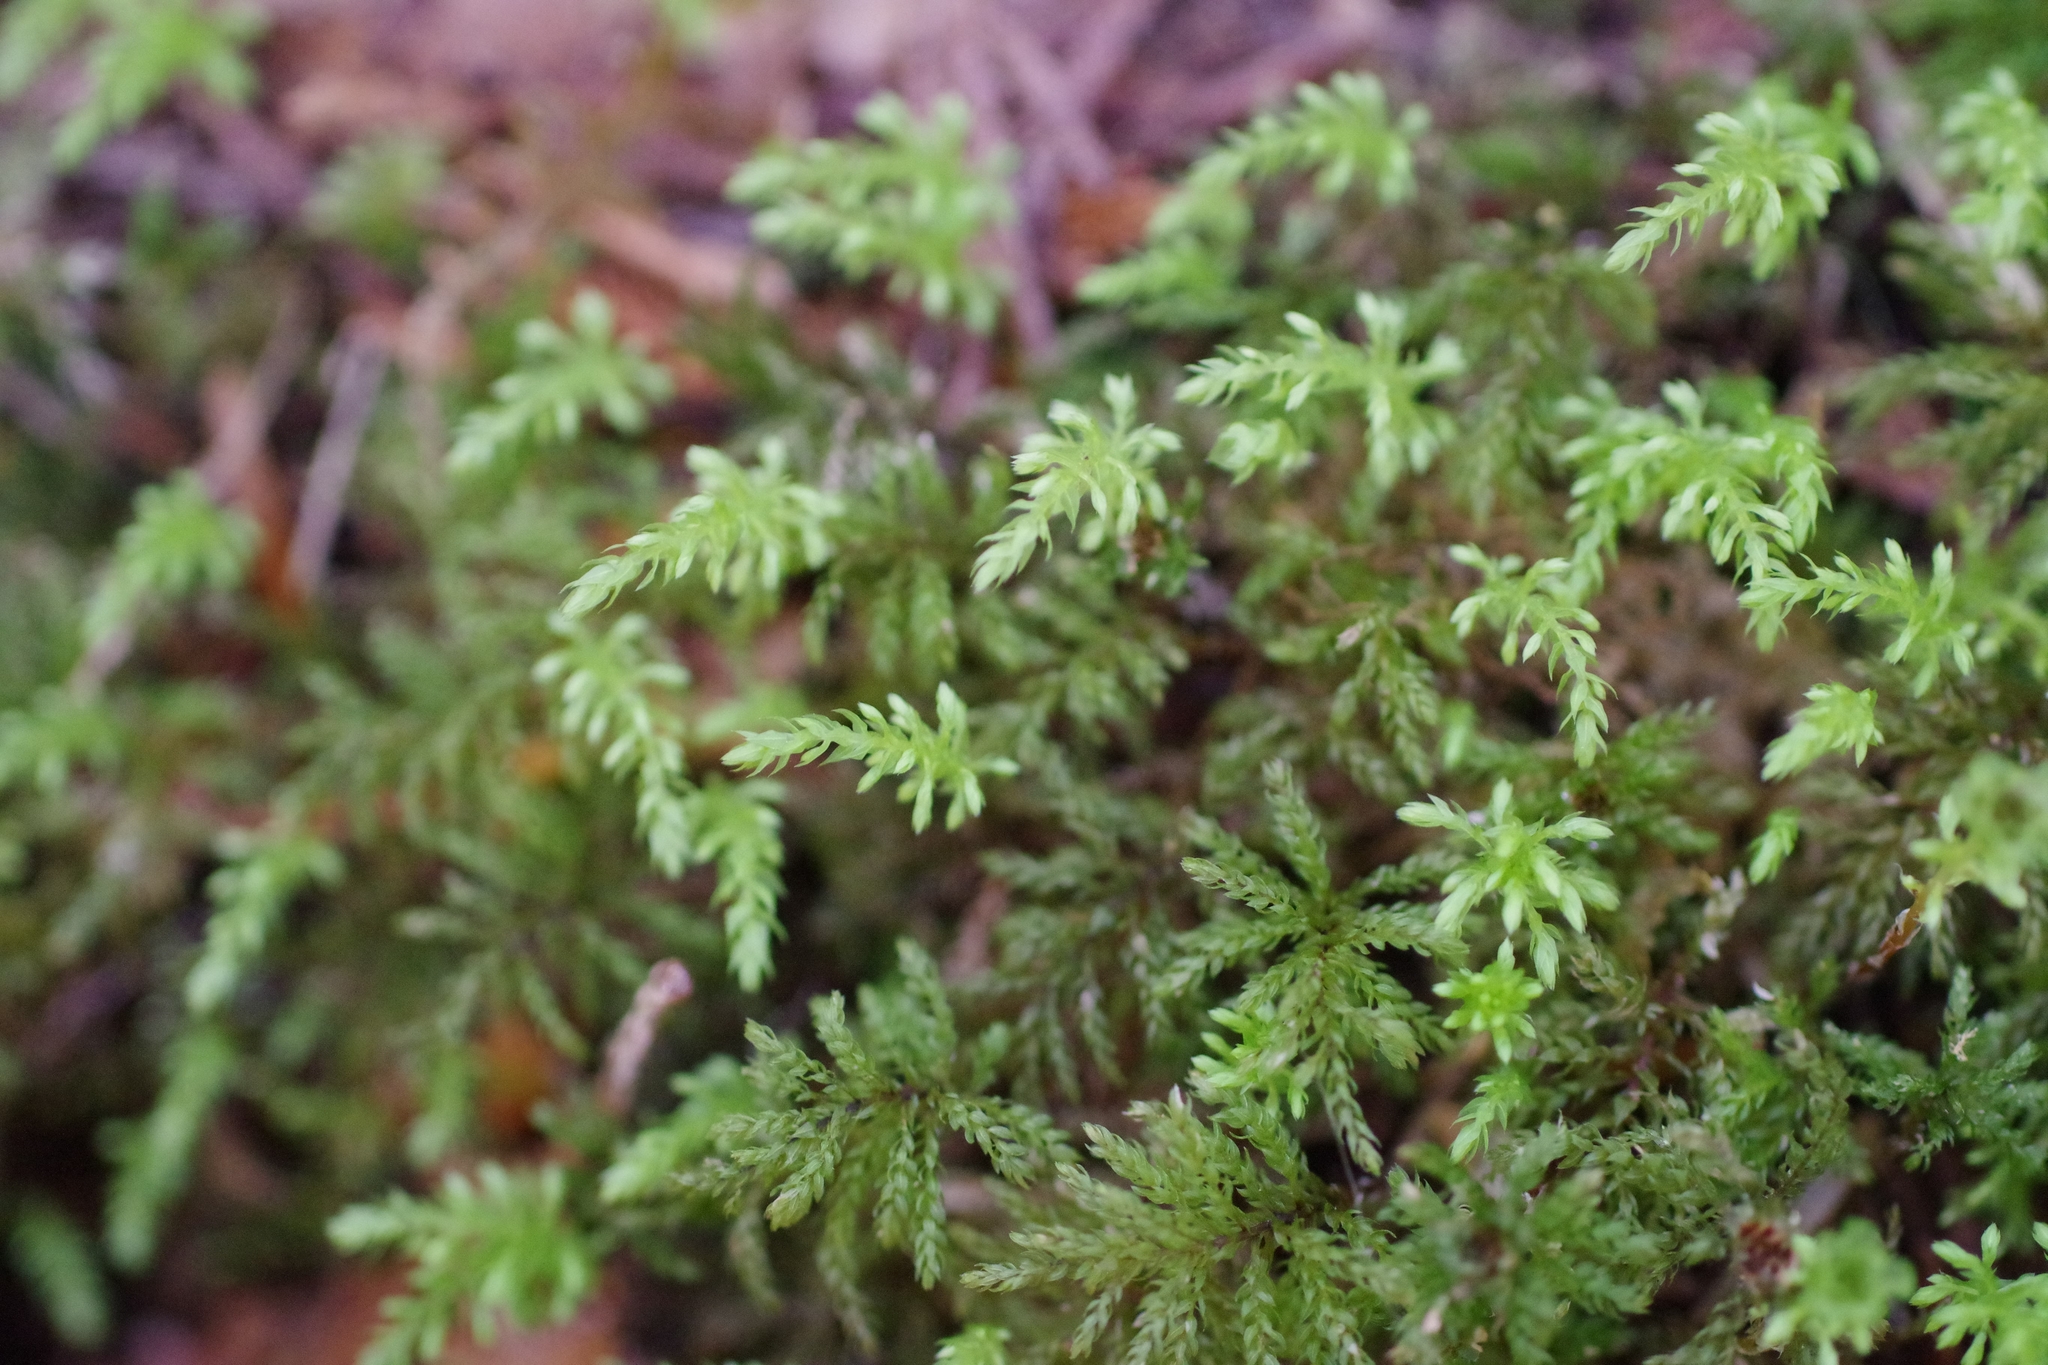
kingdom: Plantae
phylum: Bryophyta
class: Bryopsida
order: Bryales
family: Mniaceae
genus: Leucolepis
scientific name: Leucolepis acanthoneura
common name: Leucolepis umbrella moss
